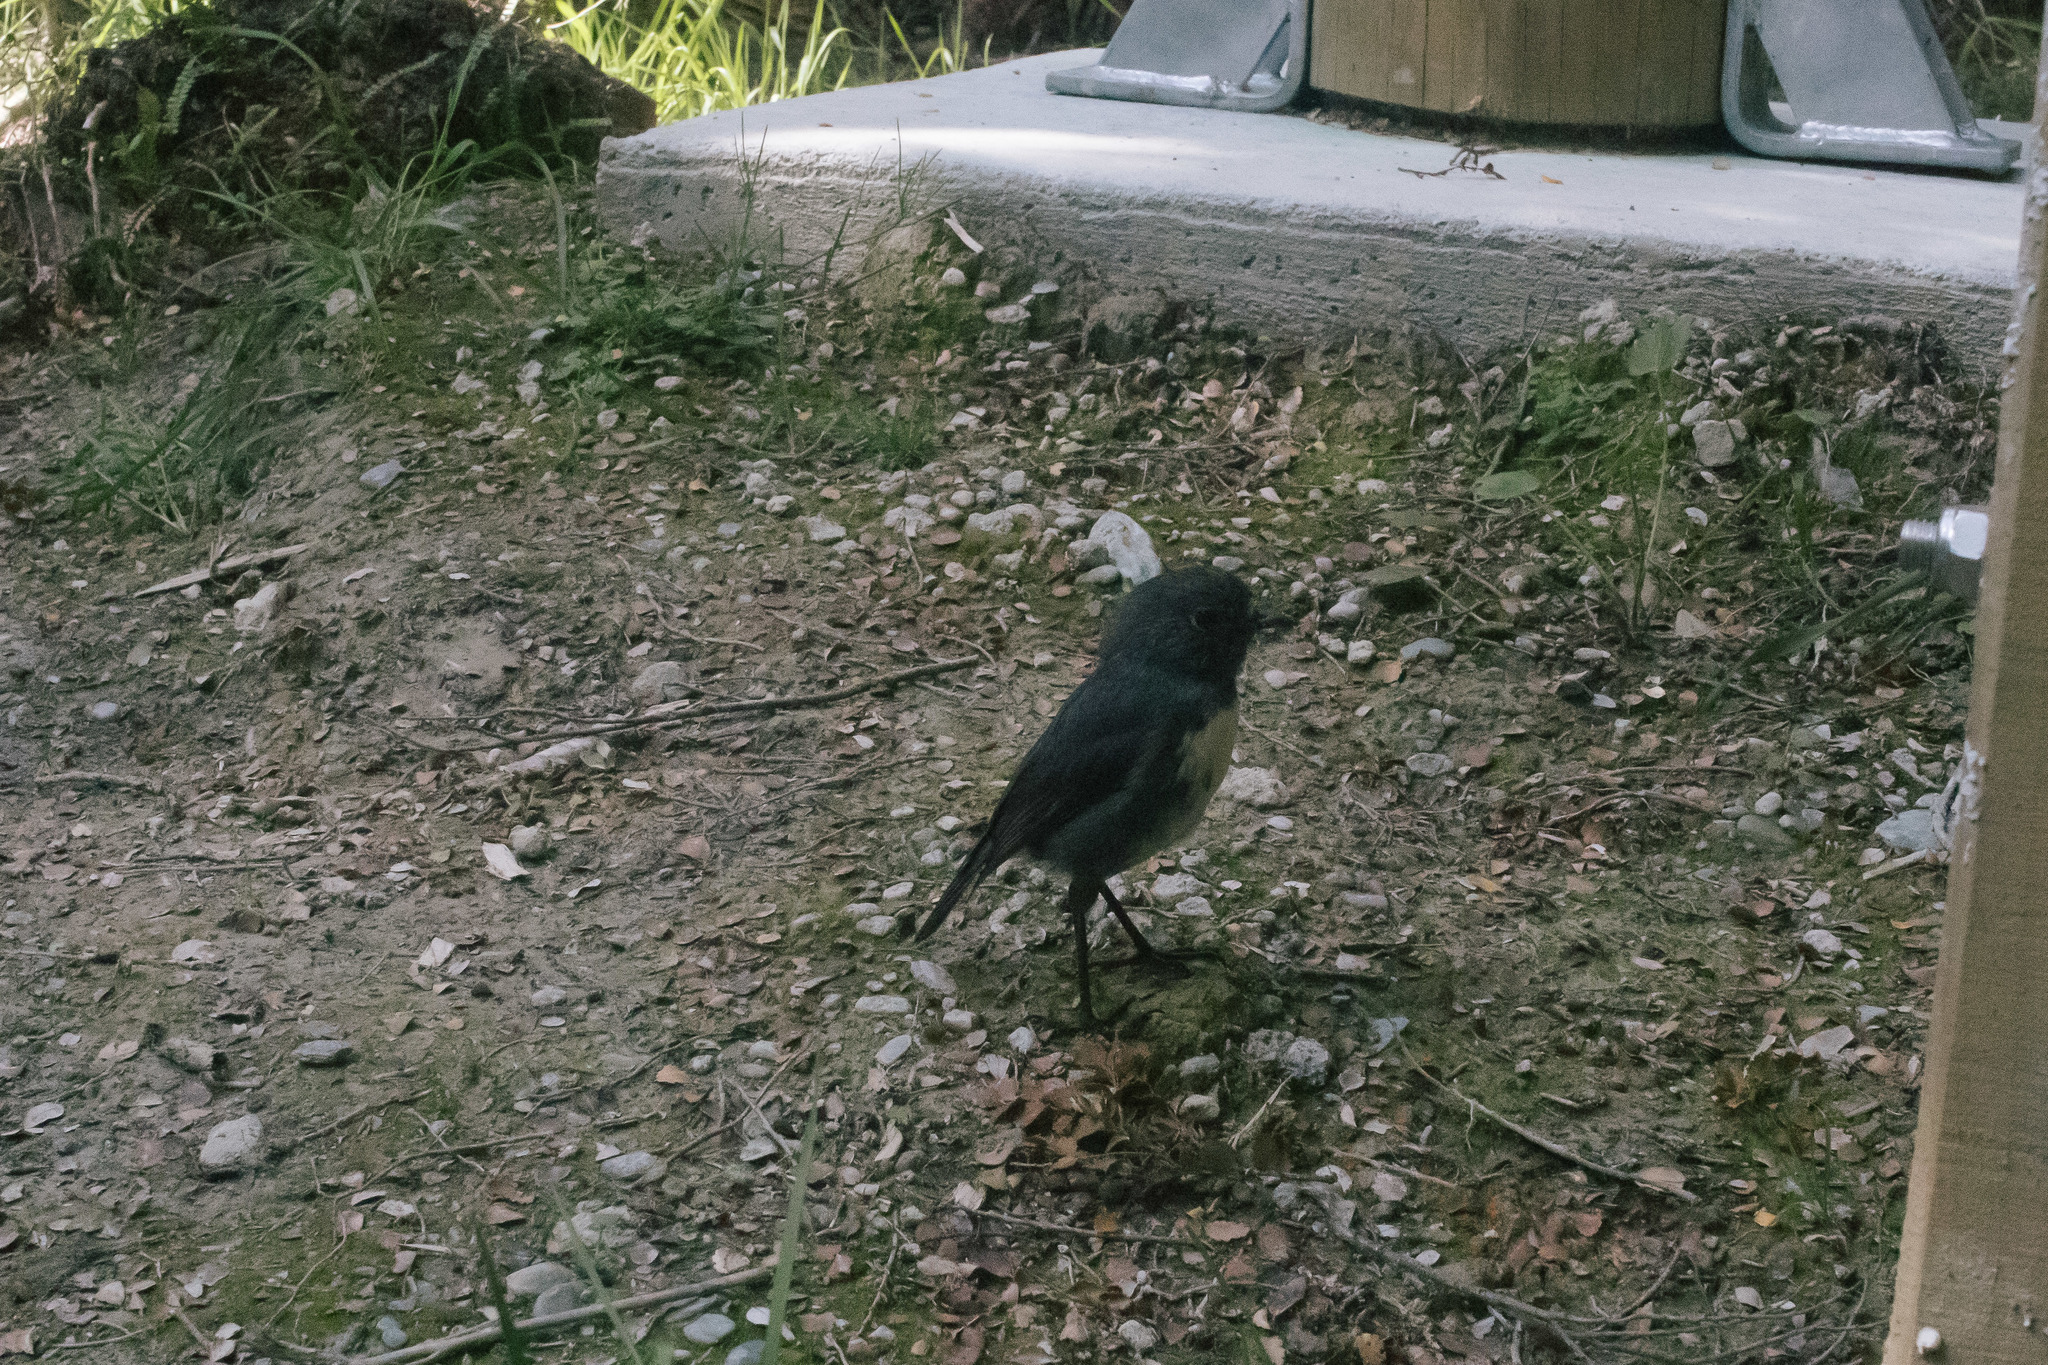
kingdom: Animalia
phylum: Chordata
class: Aves
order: Passeriformes
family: Petroicidae
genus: Petroica
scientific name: Petroica australis
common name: New zealand robin
